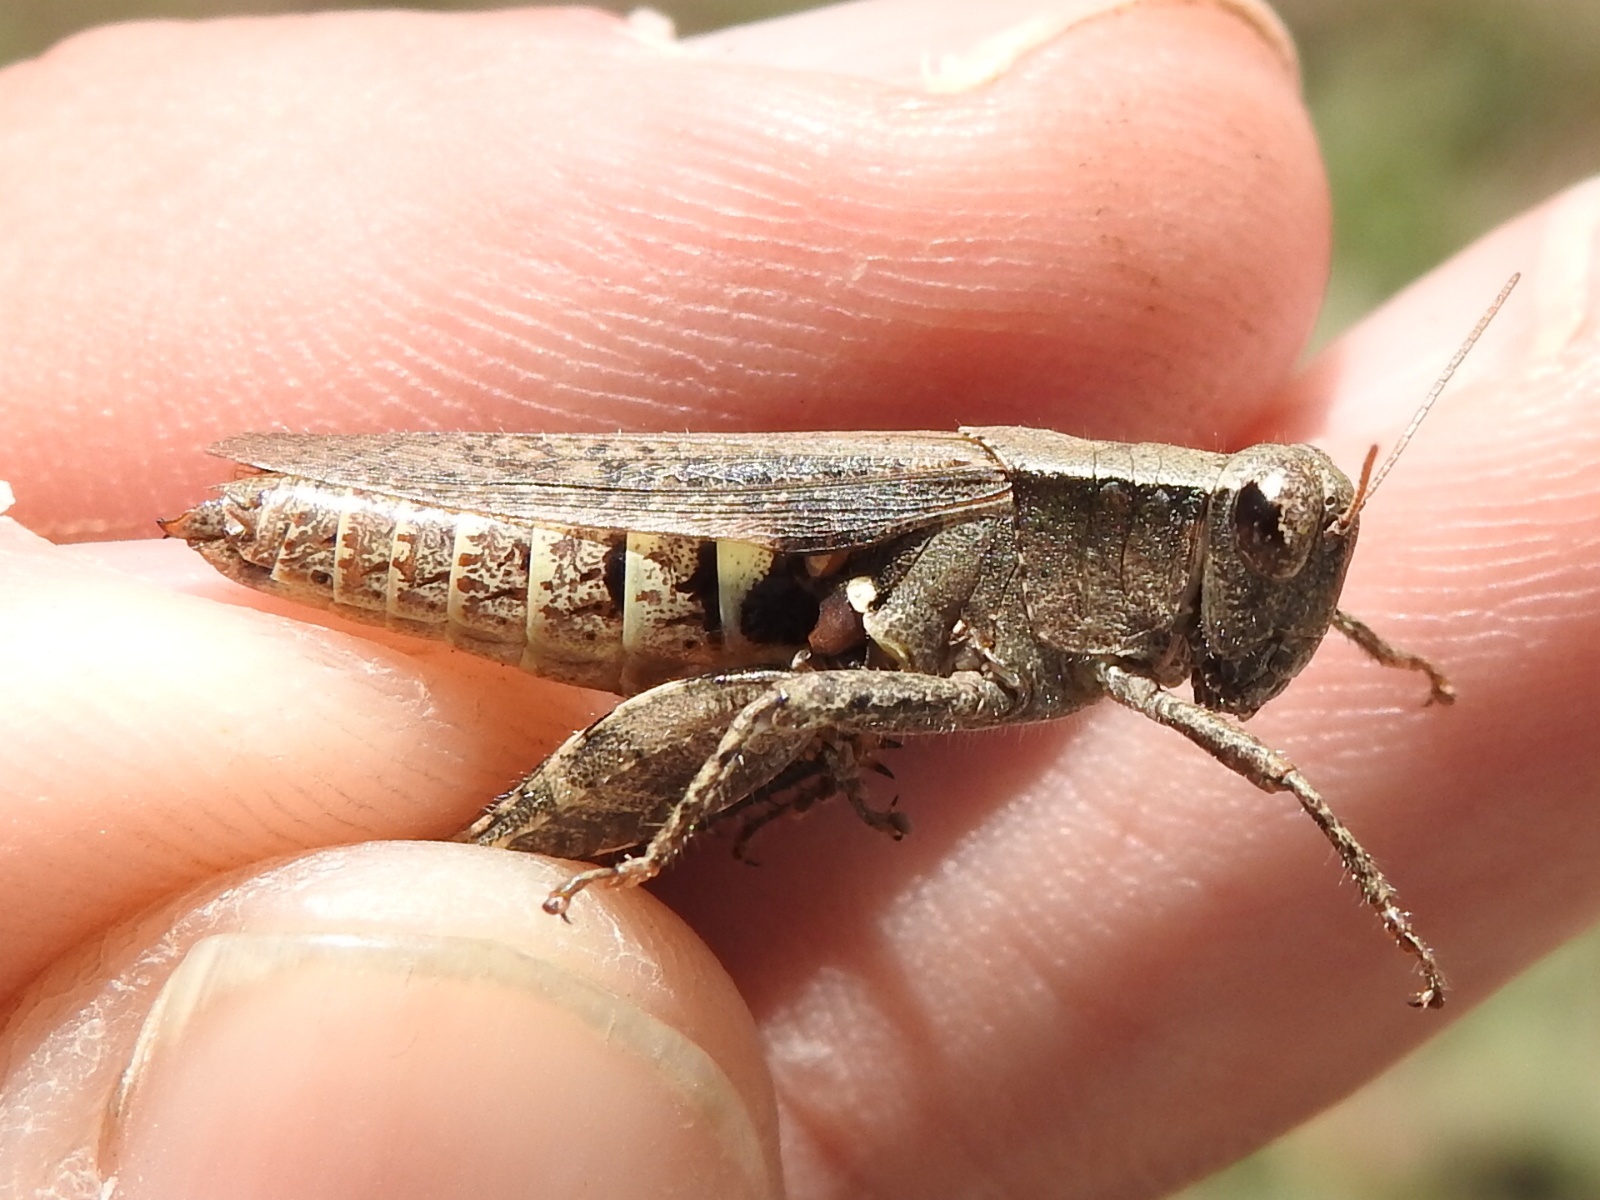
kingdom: Animalia
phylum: Arthropoda
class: Insecta
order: Orthoptera
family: Acrididae
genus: Aidemona
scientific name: Aidemona azteca
